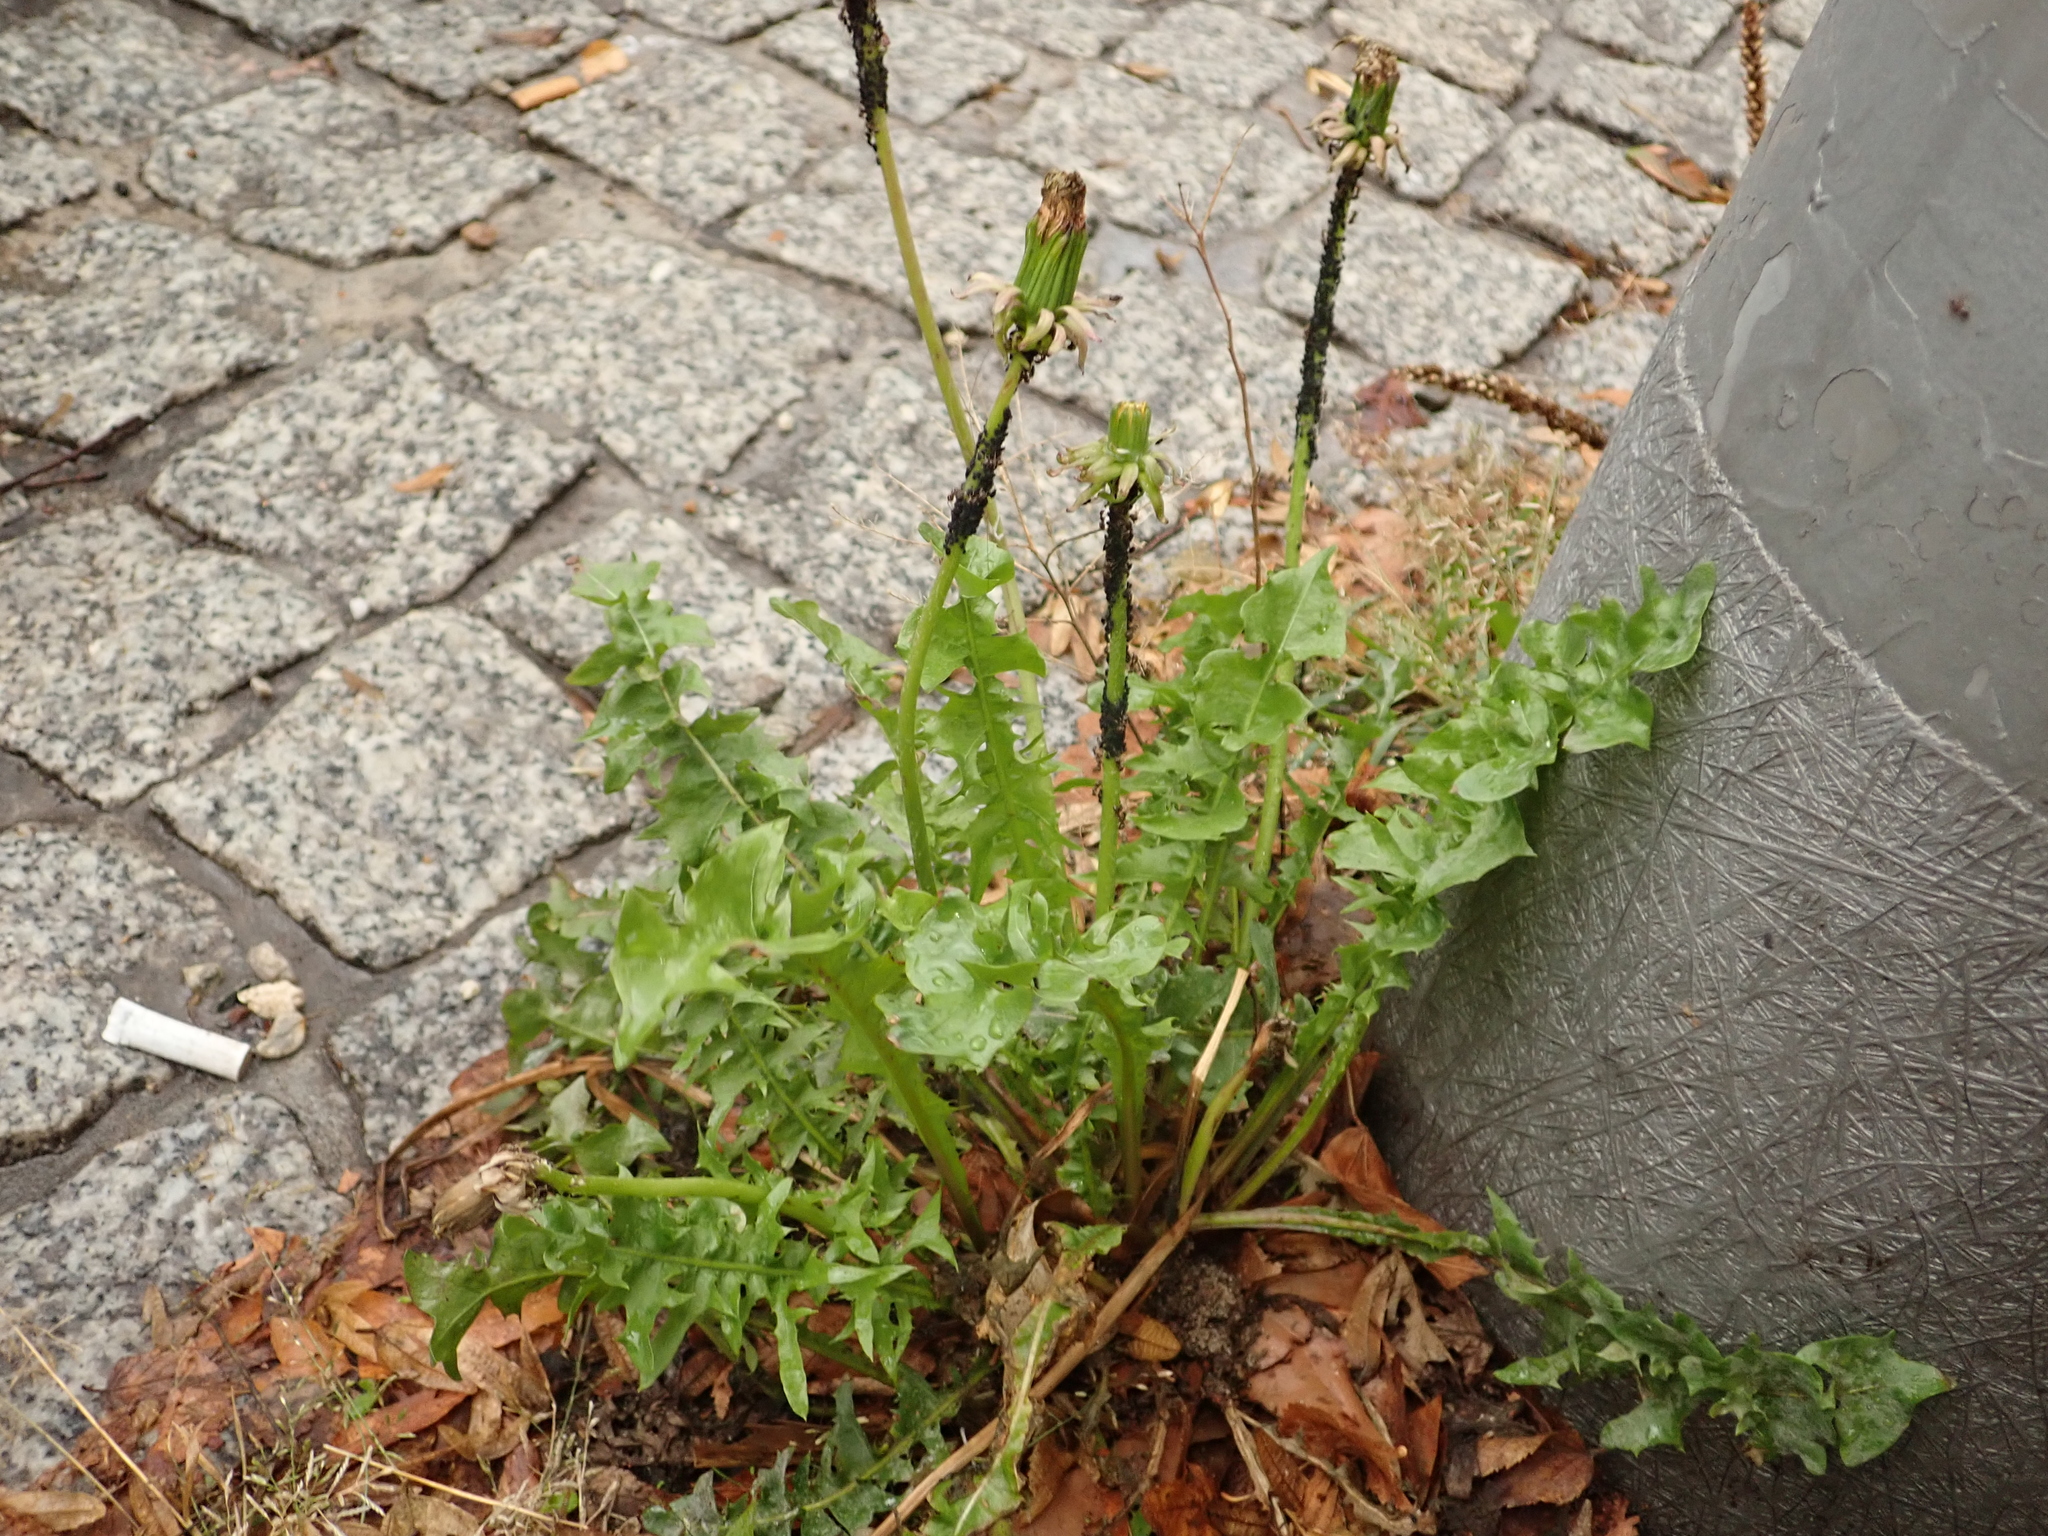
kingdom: Plantae
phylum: Tracheophyta
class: Magnoliopsida
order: Asterales
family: Asteraceae
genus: Taraxacum
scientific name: Taraxacum officinale
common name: Common dandelion
